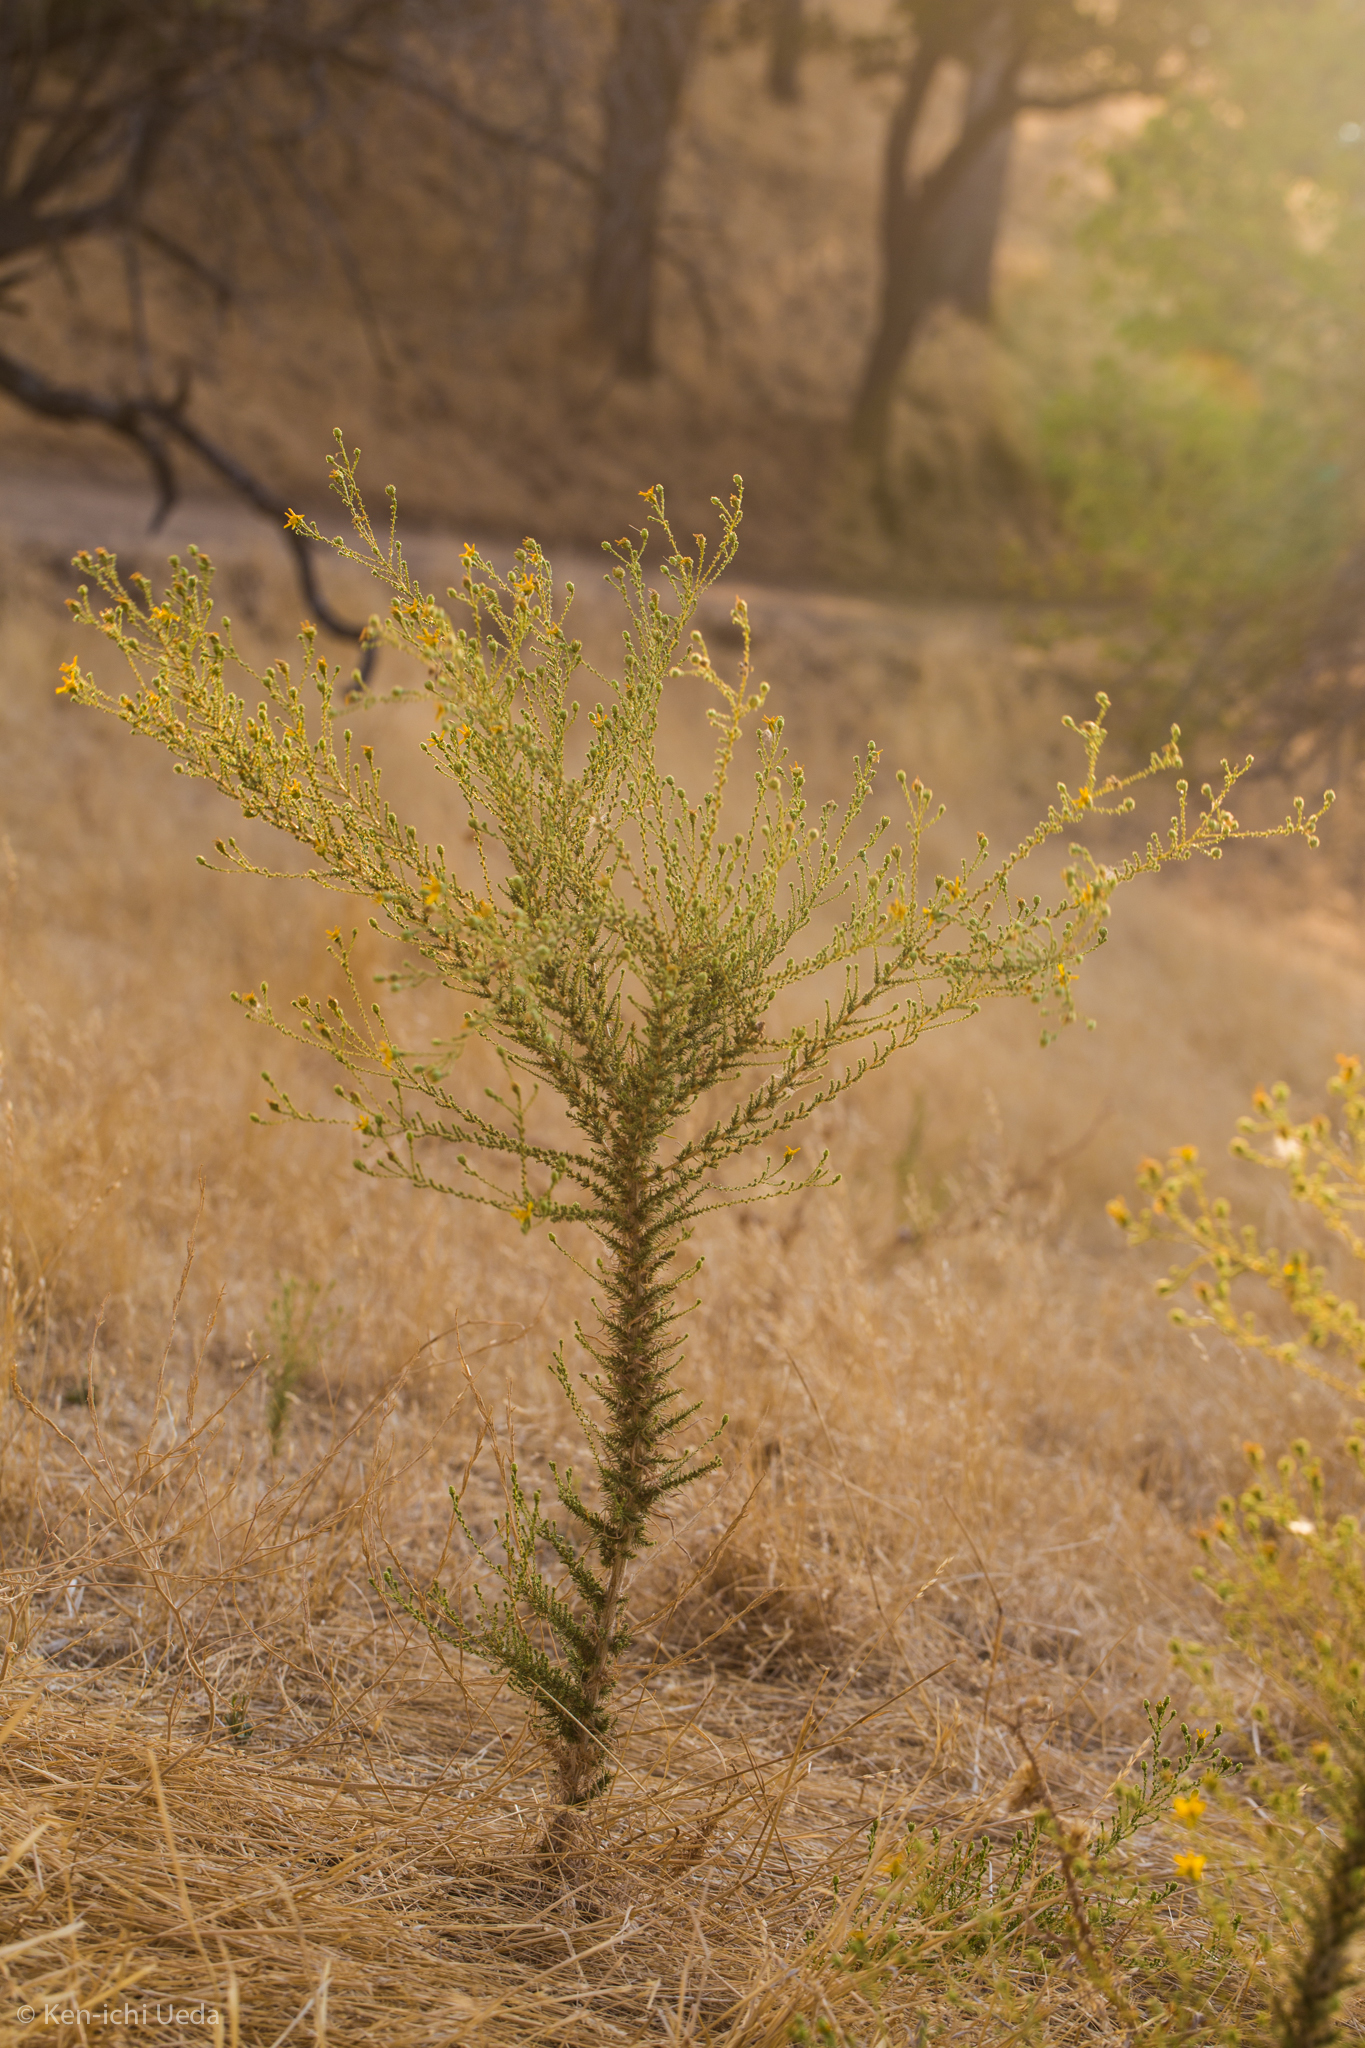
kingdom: Plantae
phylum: Tracheophyta
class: Magnoliopsida
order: Asterales
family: Asteraceae
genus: Holocarpha
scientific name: Holocarpha obconica
